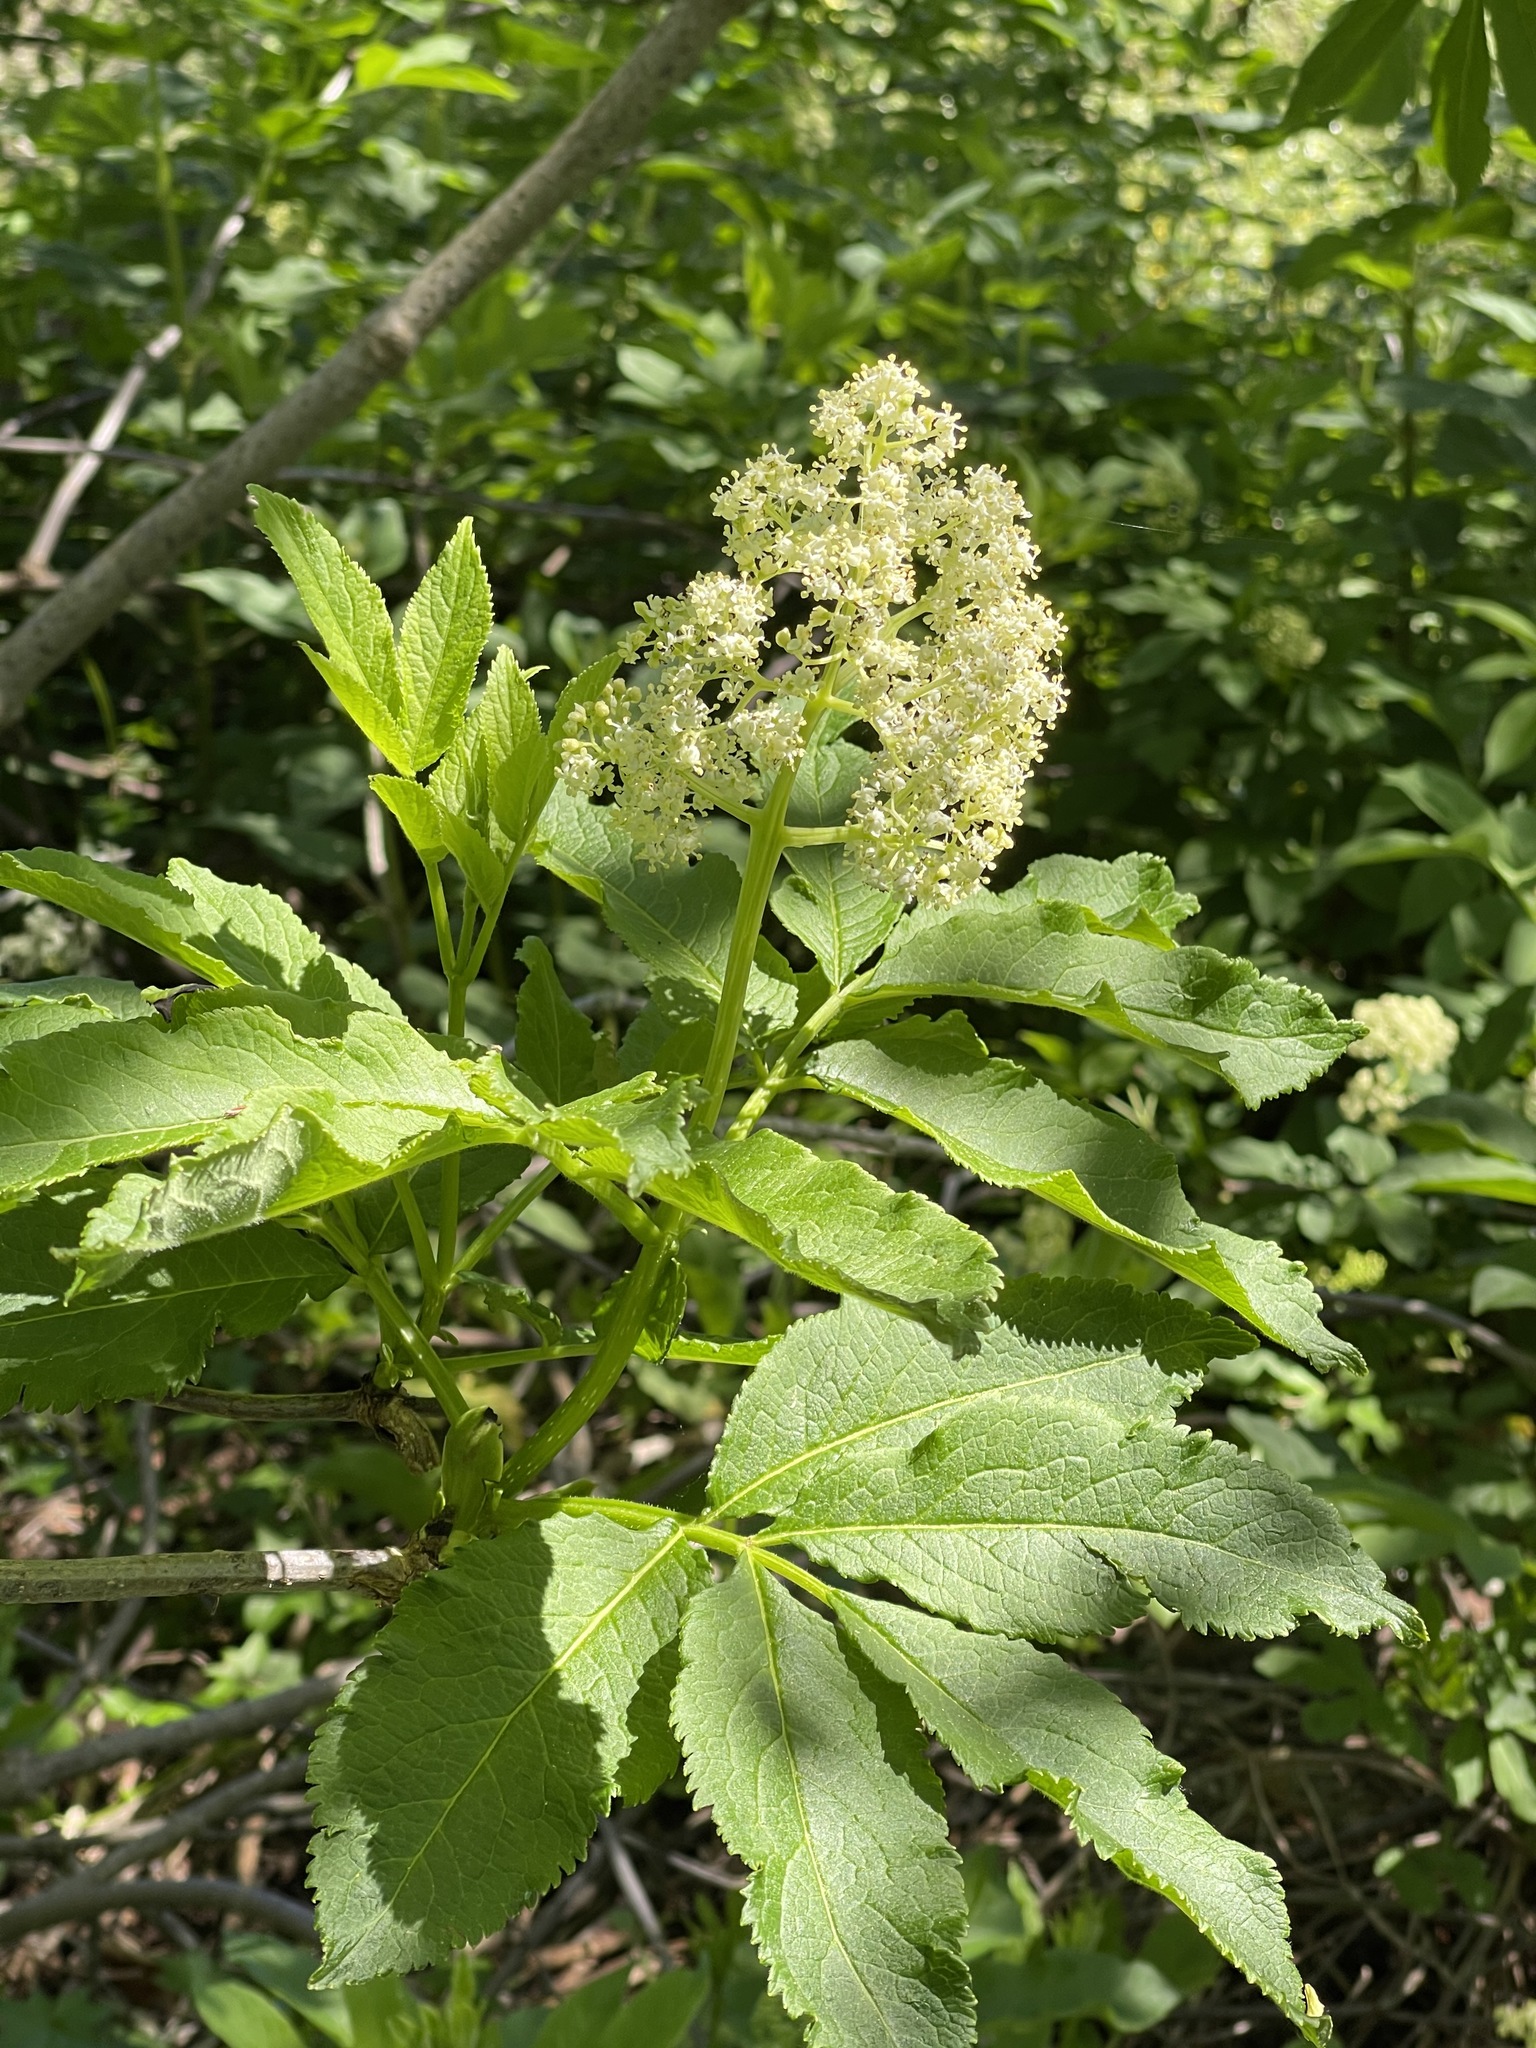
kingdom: Plantae
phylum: Tracheophyta
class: Magnoliopsida
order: Dipsacales
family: Viburnaceae
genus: Sambucus
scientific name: Sambucus racemosa
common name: Red-berried elder
